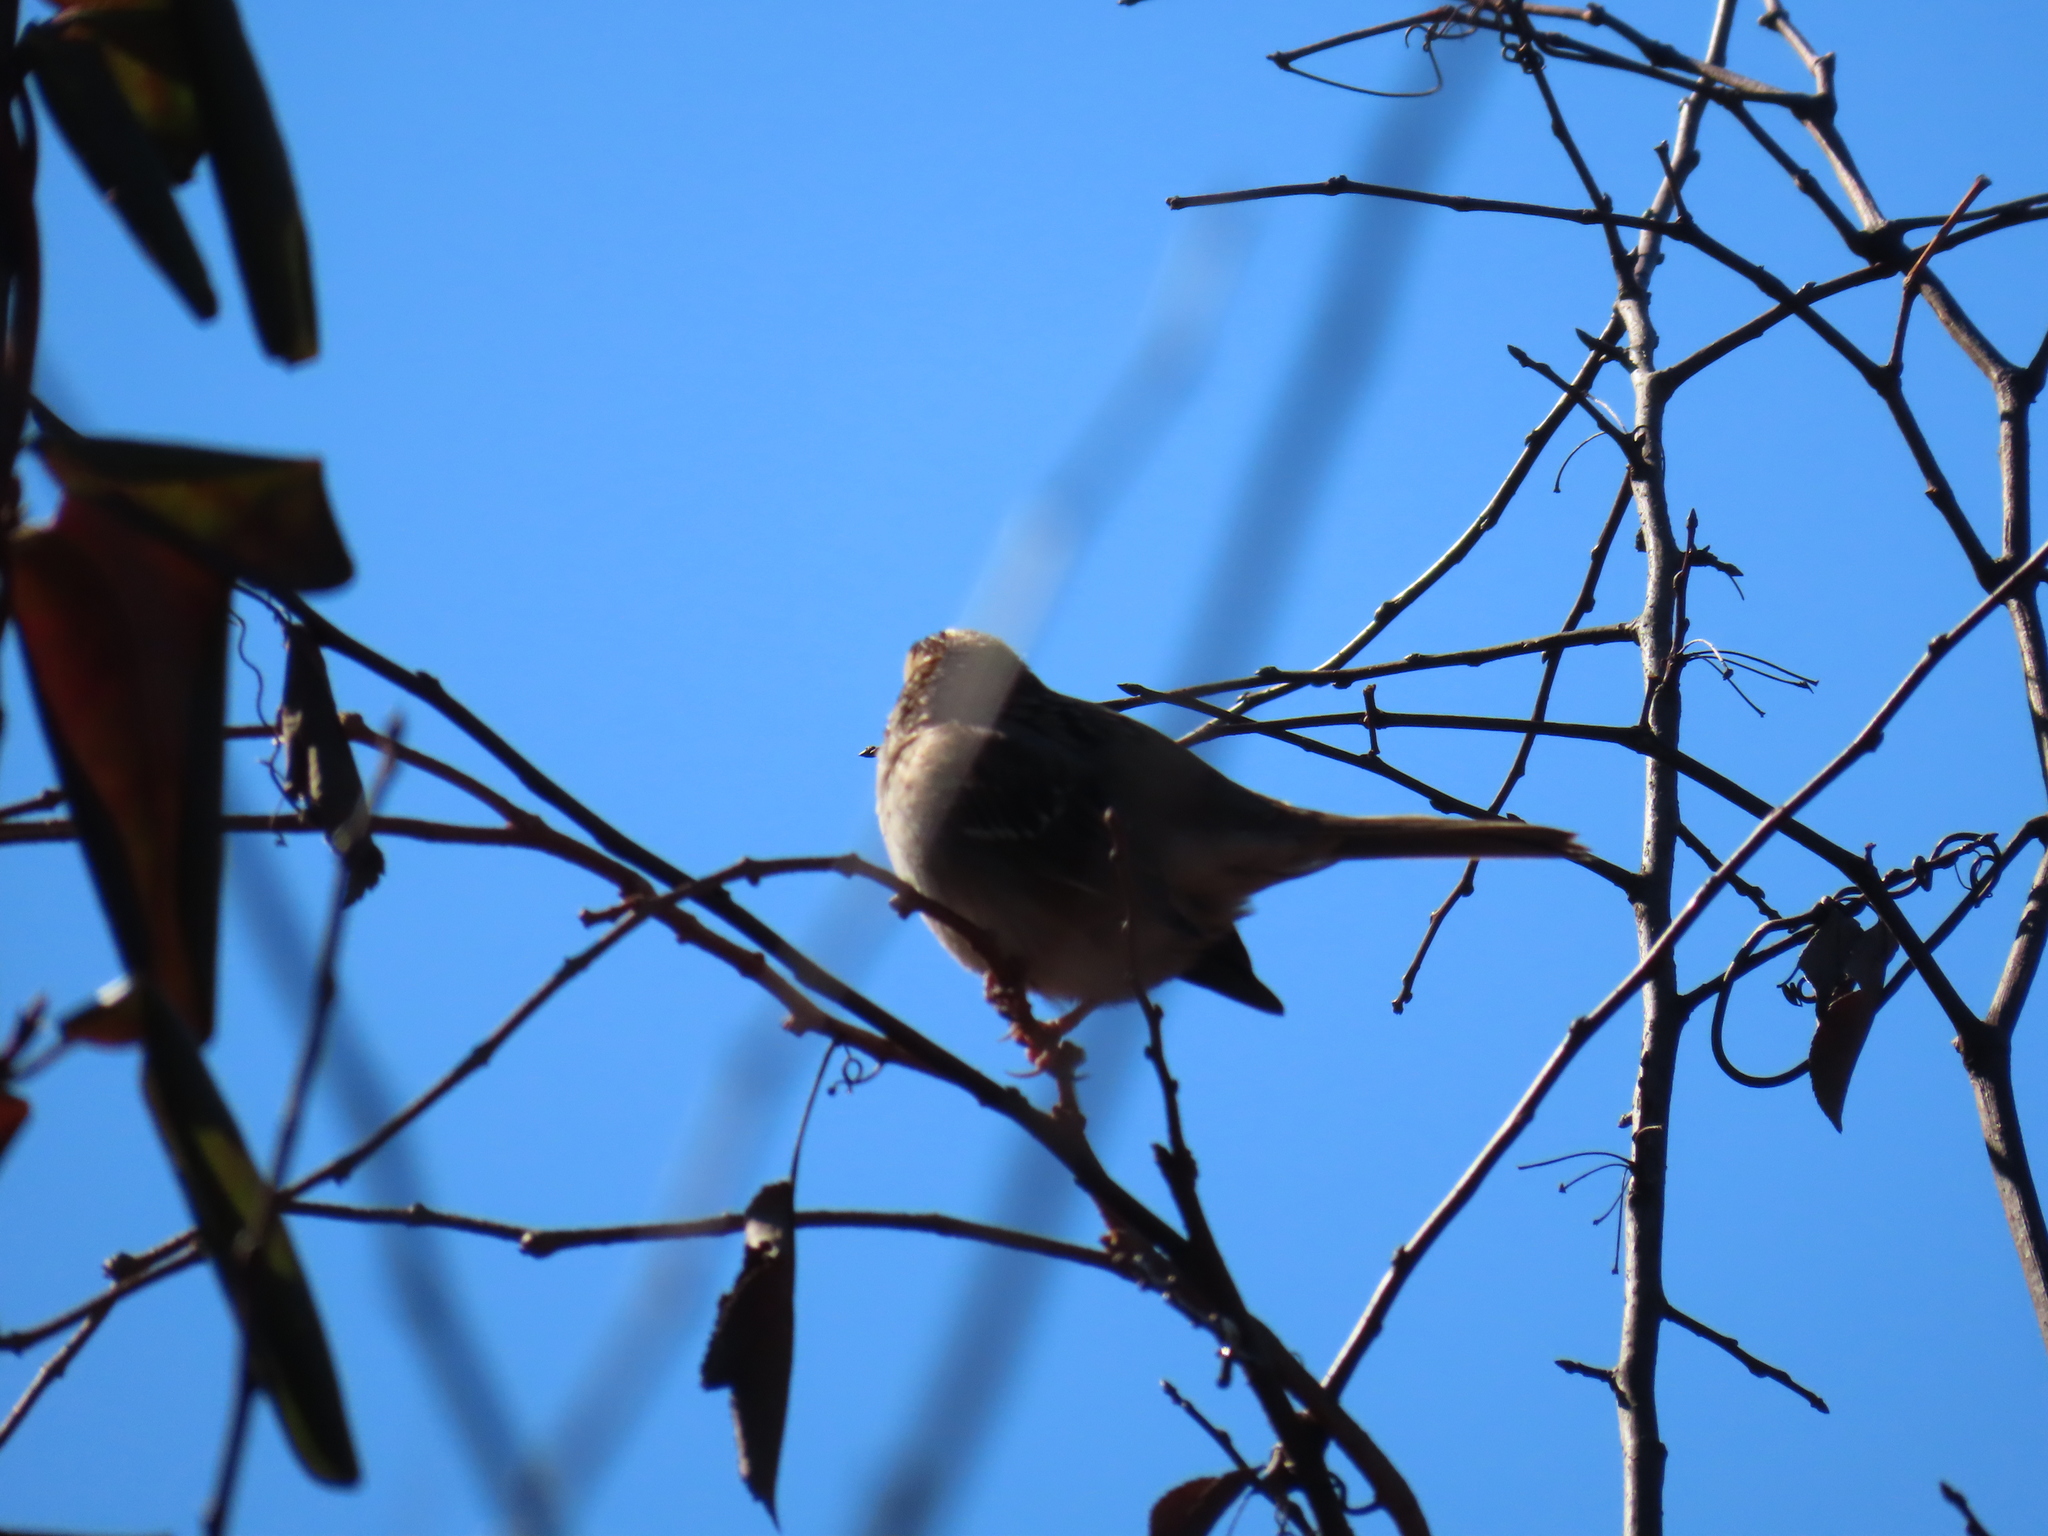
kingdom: Animalia
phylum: Chordata
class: Aves
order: Passeriformes
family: Passerellidae
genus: Zonotrichia
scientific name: Zonotrichia albicollis
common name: White-throated sparrow
